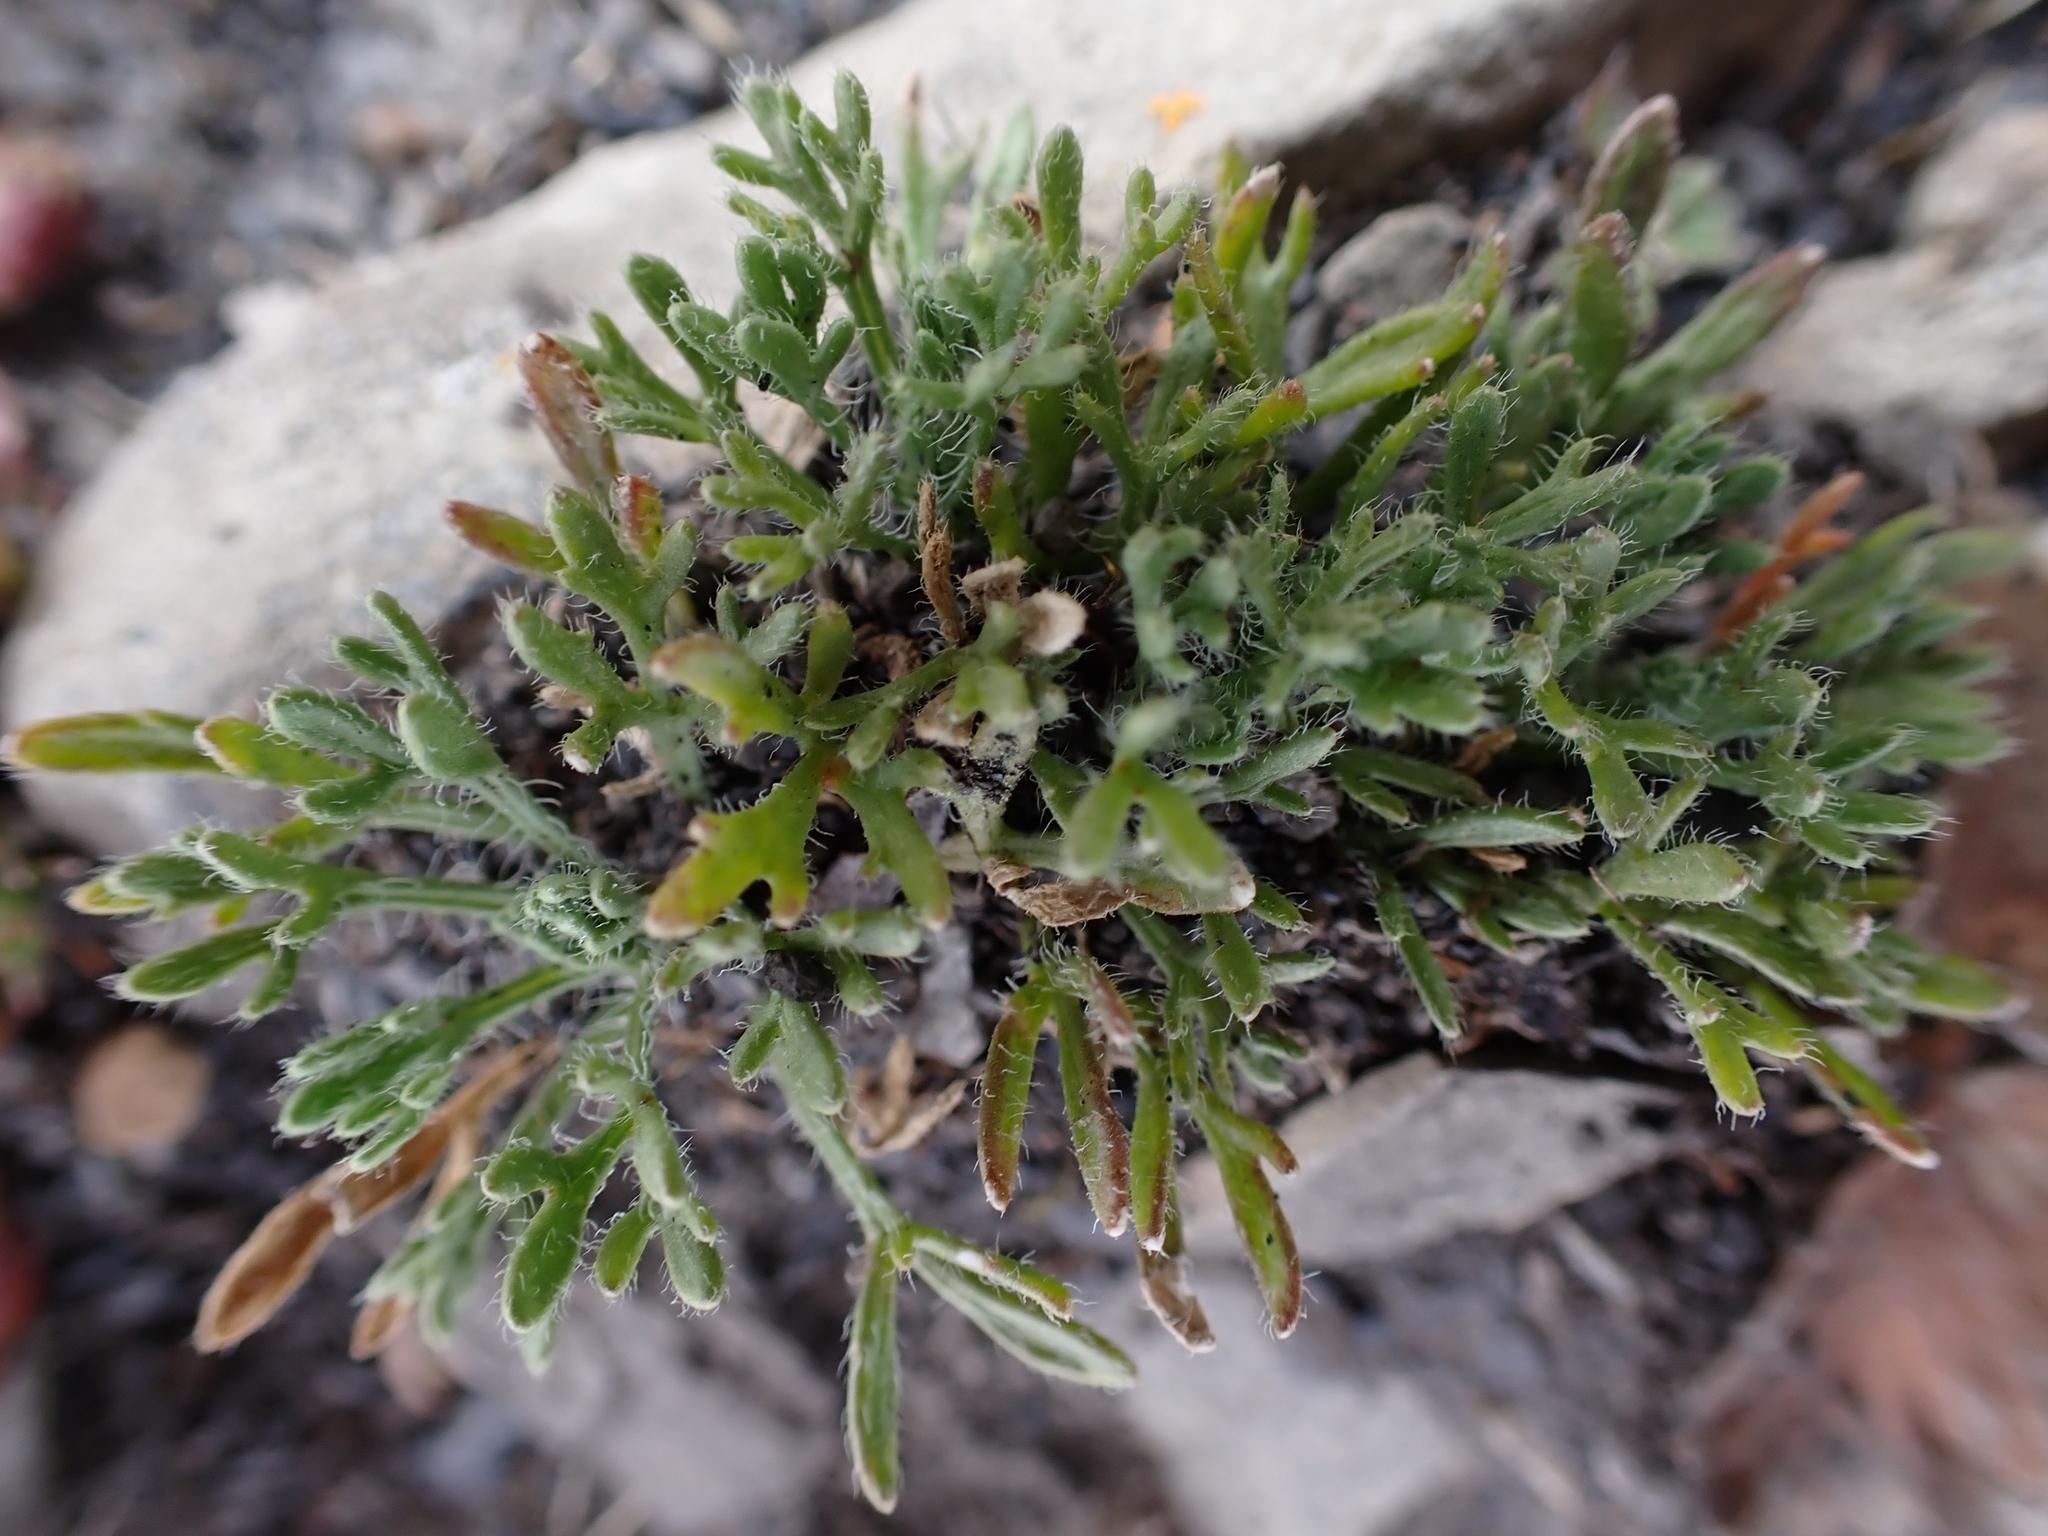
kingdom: Plantae
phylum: Tracheophyta
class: Magnoliopsida
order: Asterales
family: Asteraceae
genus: Erigeron
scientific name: Erigeron compositus
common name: Dwarf mountain fleabane
